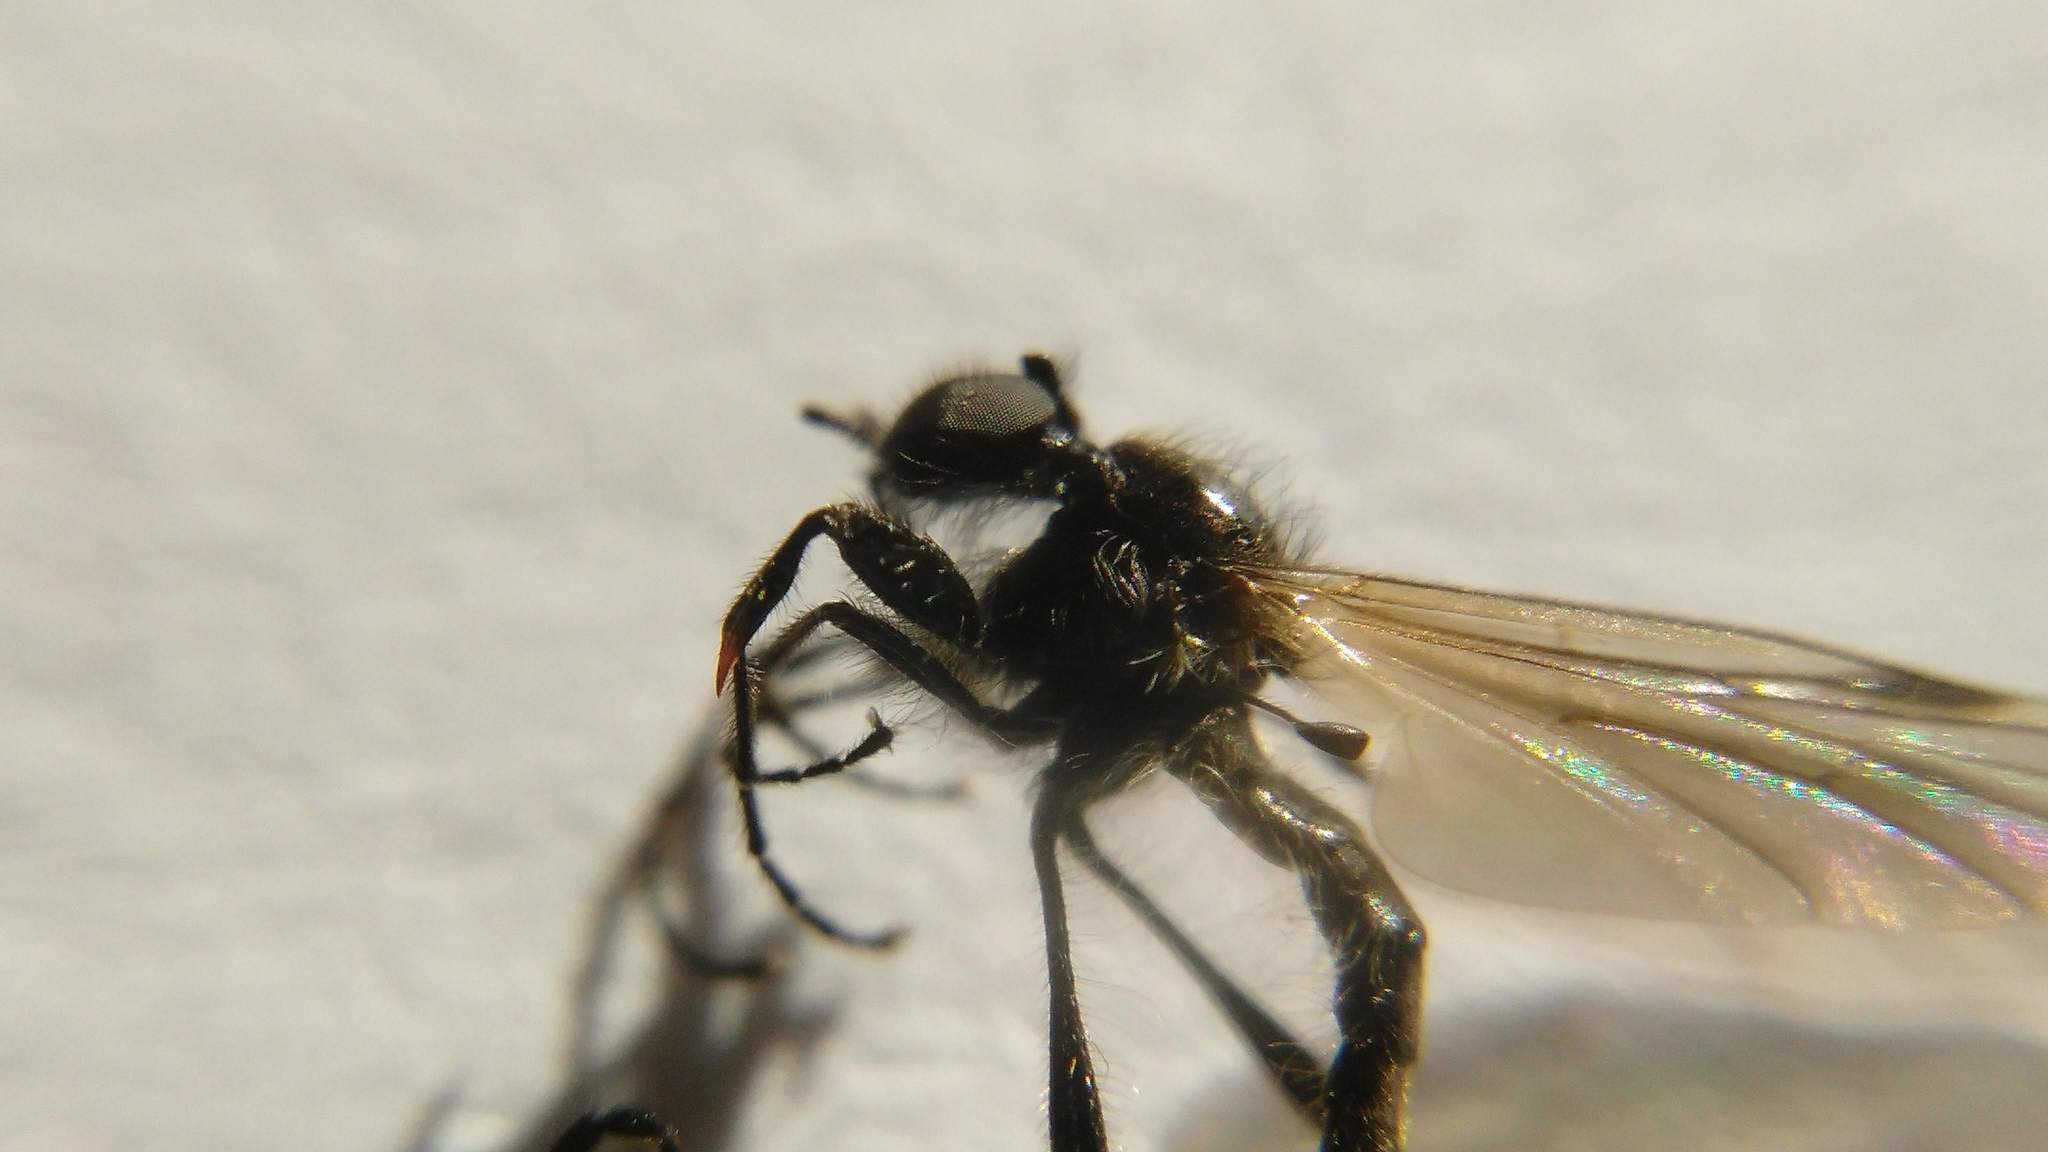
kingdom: Animalia
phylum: Arthropoda
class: Insecta
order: Diptera
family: Bibionidae
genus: Bibio
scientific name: Bibio longipes
